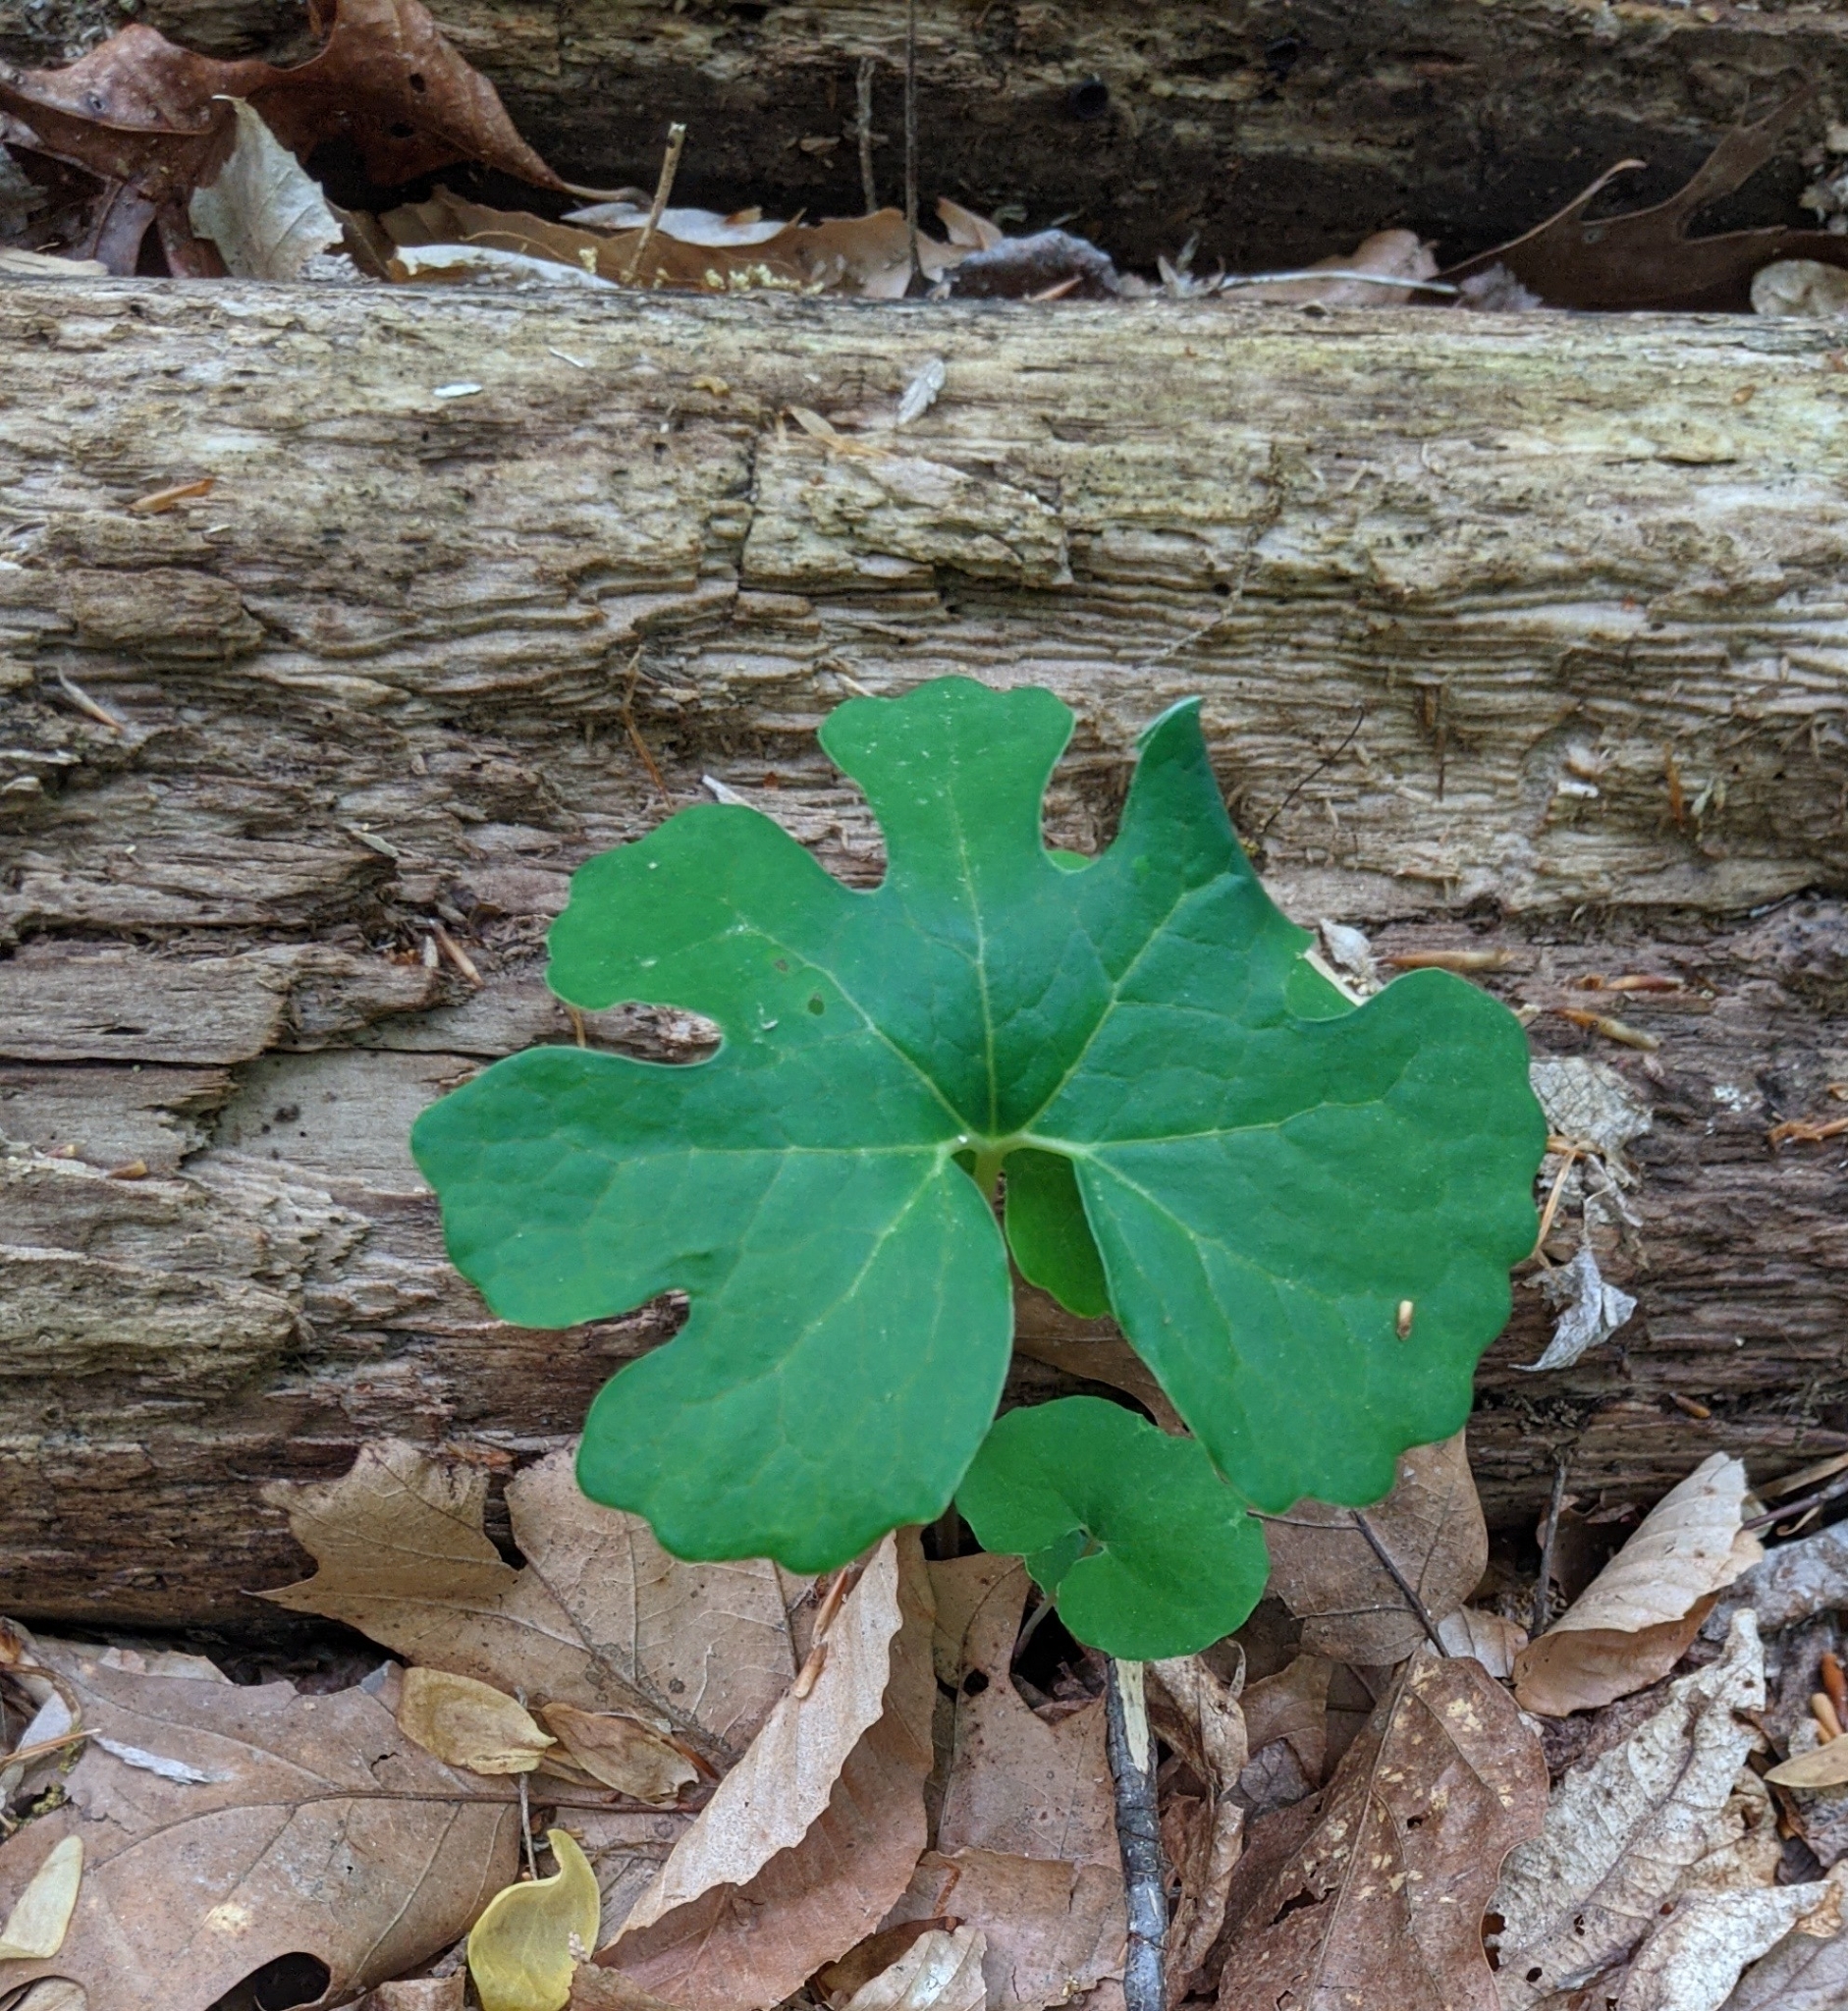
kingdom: Plantae
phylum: Tracheophyta
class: Magnoliopsida
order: Ranunculales
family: Papaveraceae
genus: Sanguinaria
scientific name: Sanguinaria canadensis
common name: Bloodroot
